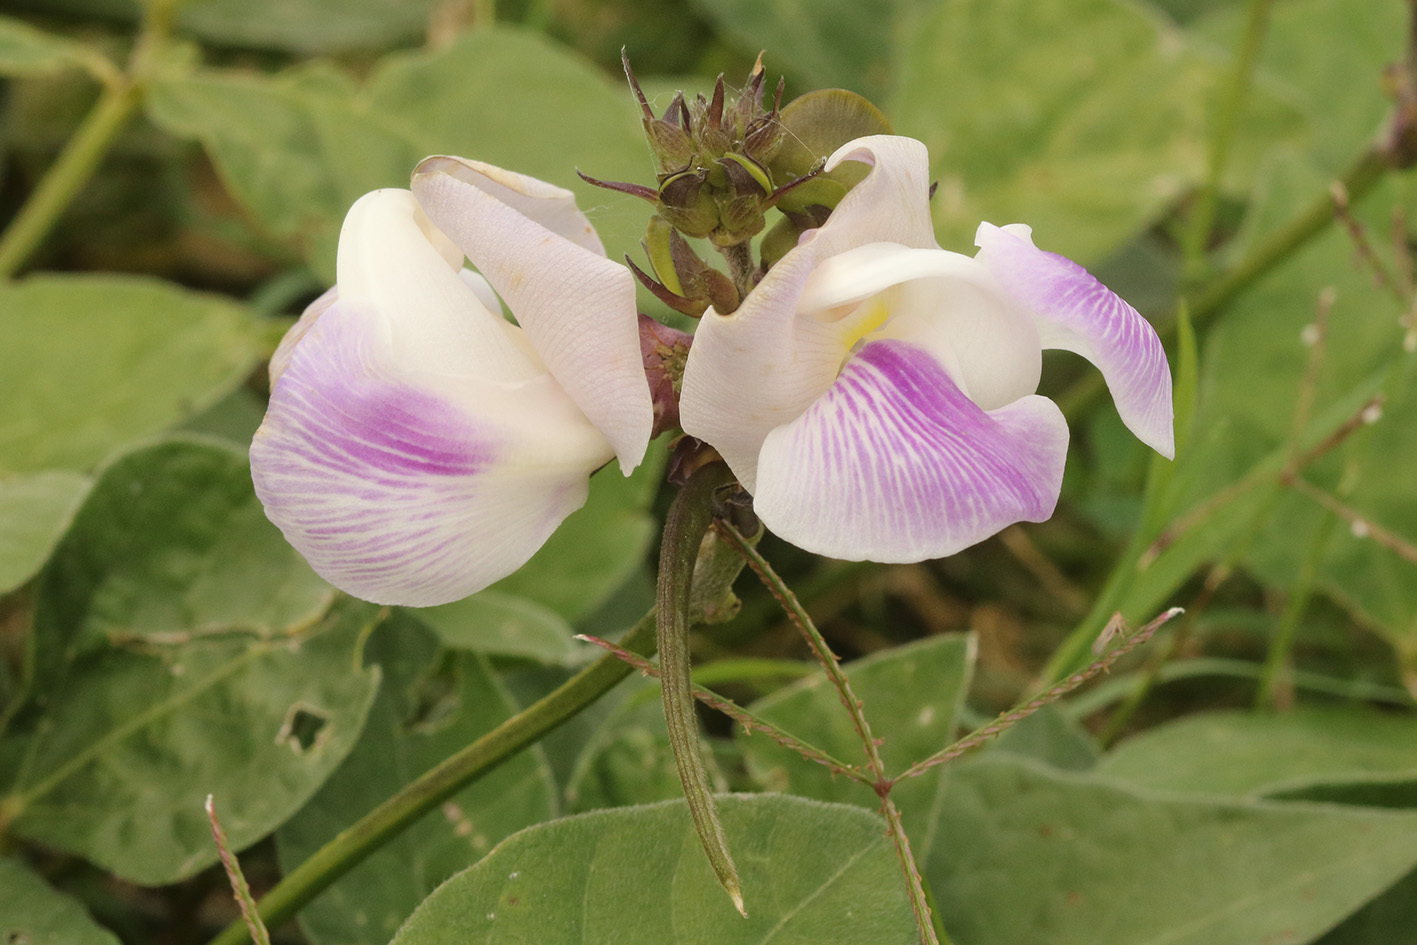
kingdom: Plantae
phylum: Tracheophyta
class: Magnoliopsida
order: Fabales
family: Fabaceae
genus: Leptospron
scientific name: Leptospron adenanthum
